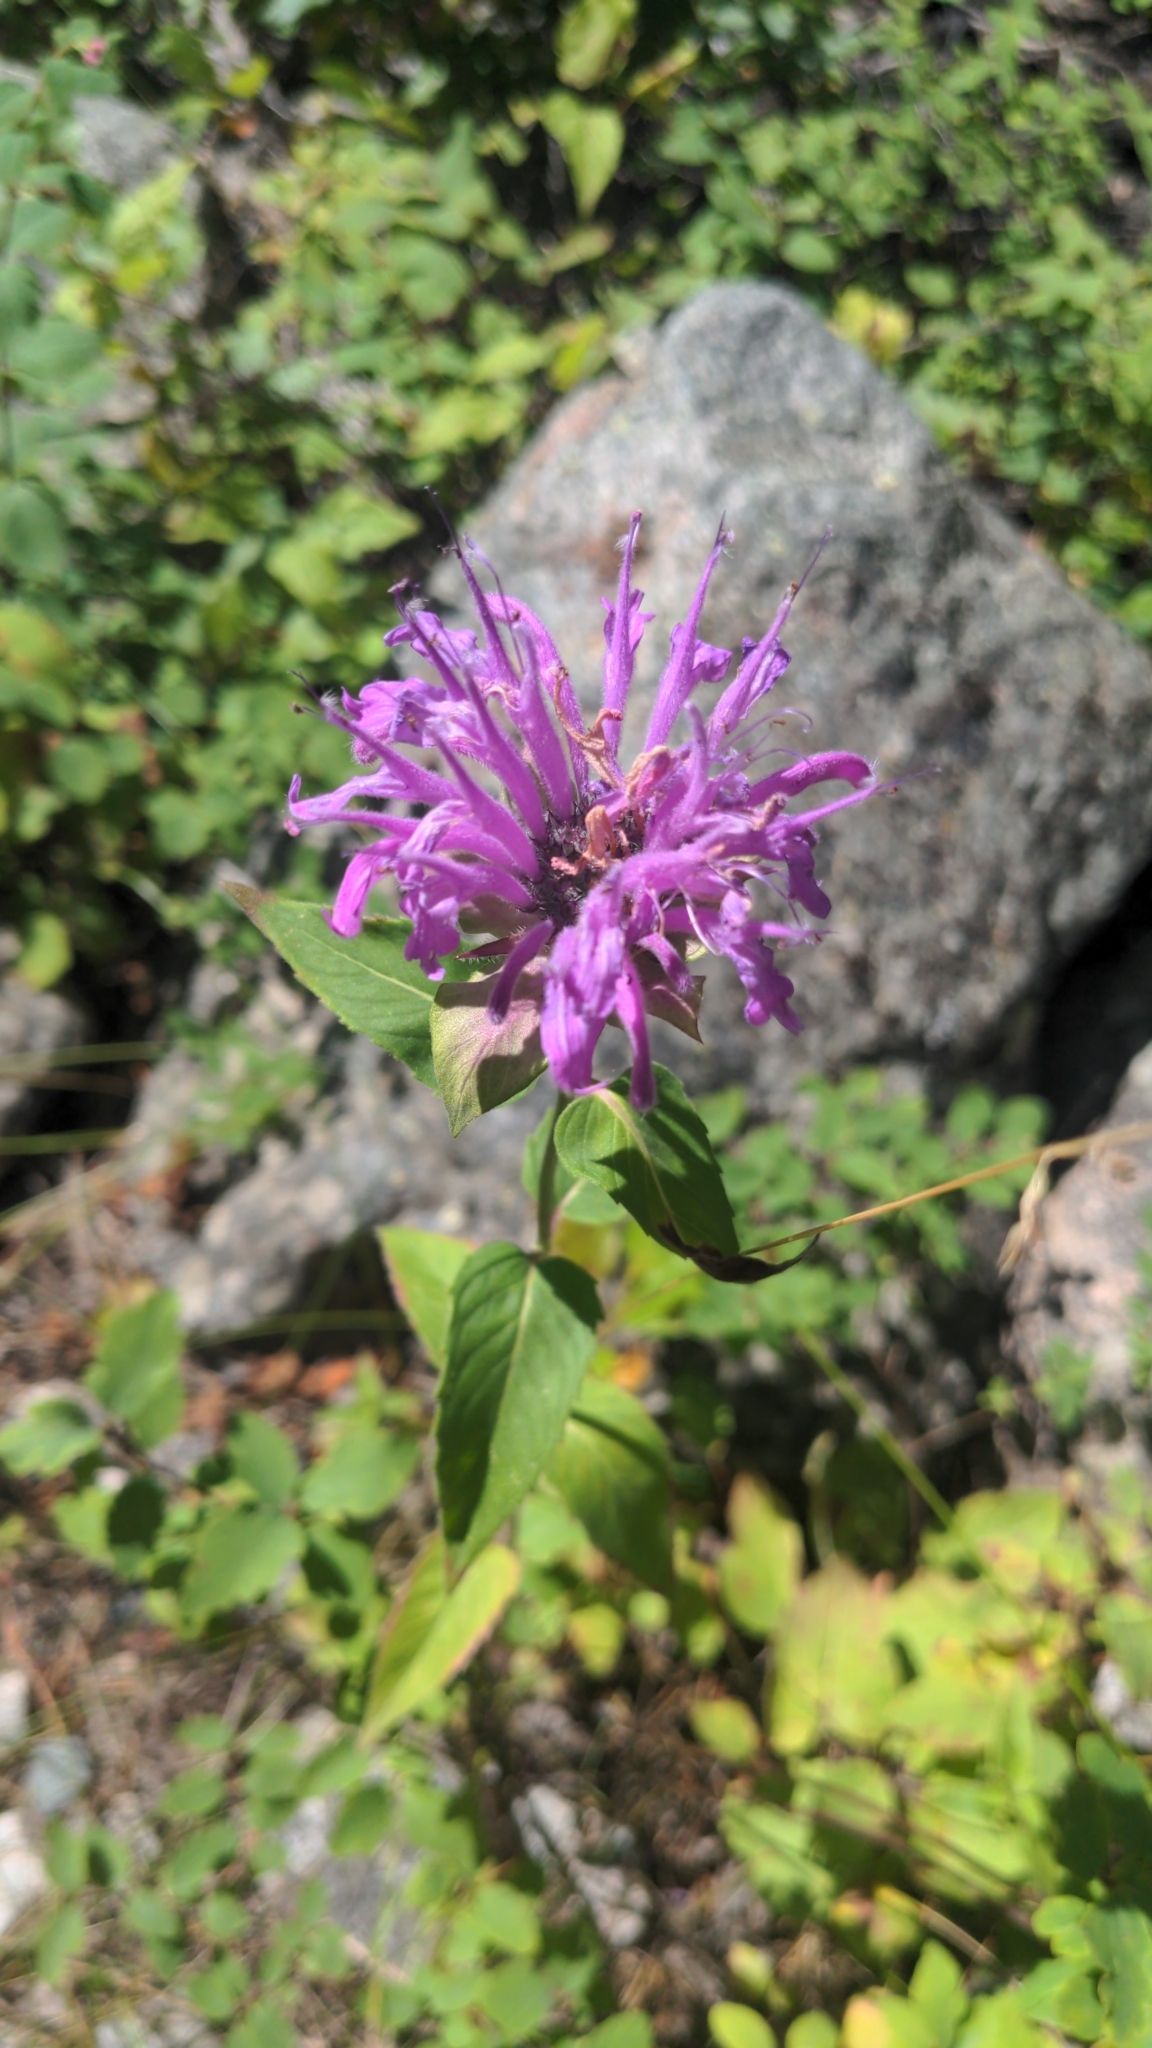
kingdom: Plantae
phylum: Tracheophyta
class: Magnoliopsida
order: Lamiales
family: Lamiaceae
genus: Monarda
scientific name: Monarda fistulosa
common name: Purple beebalm
